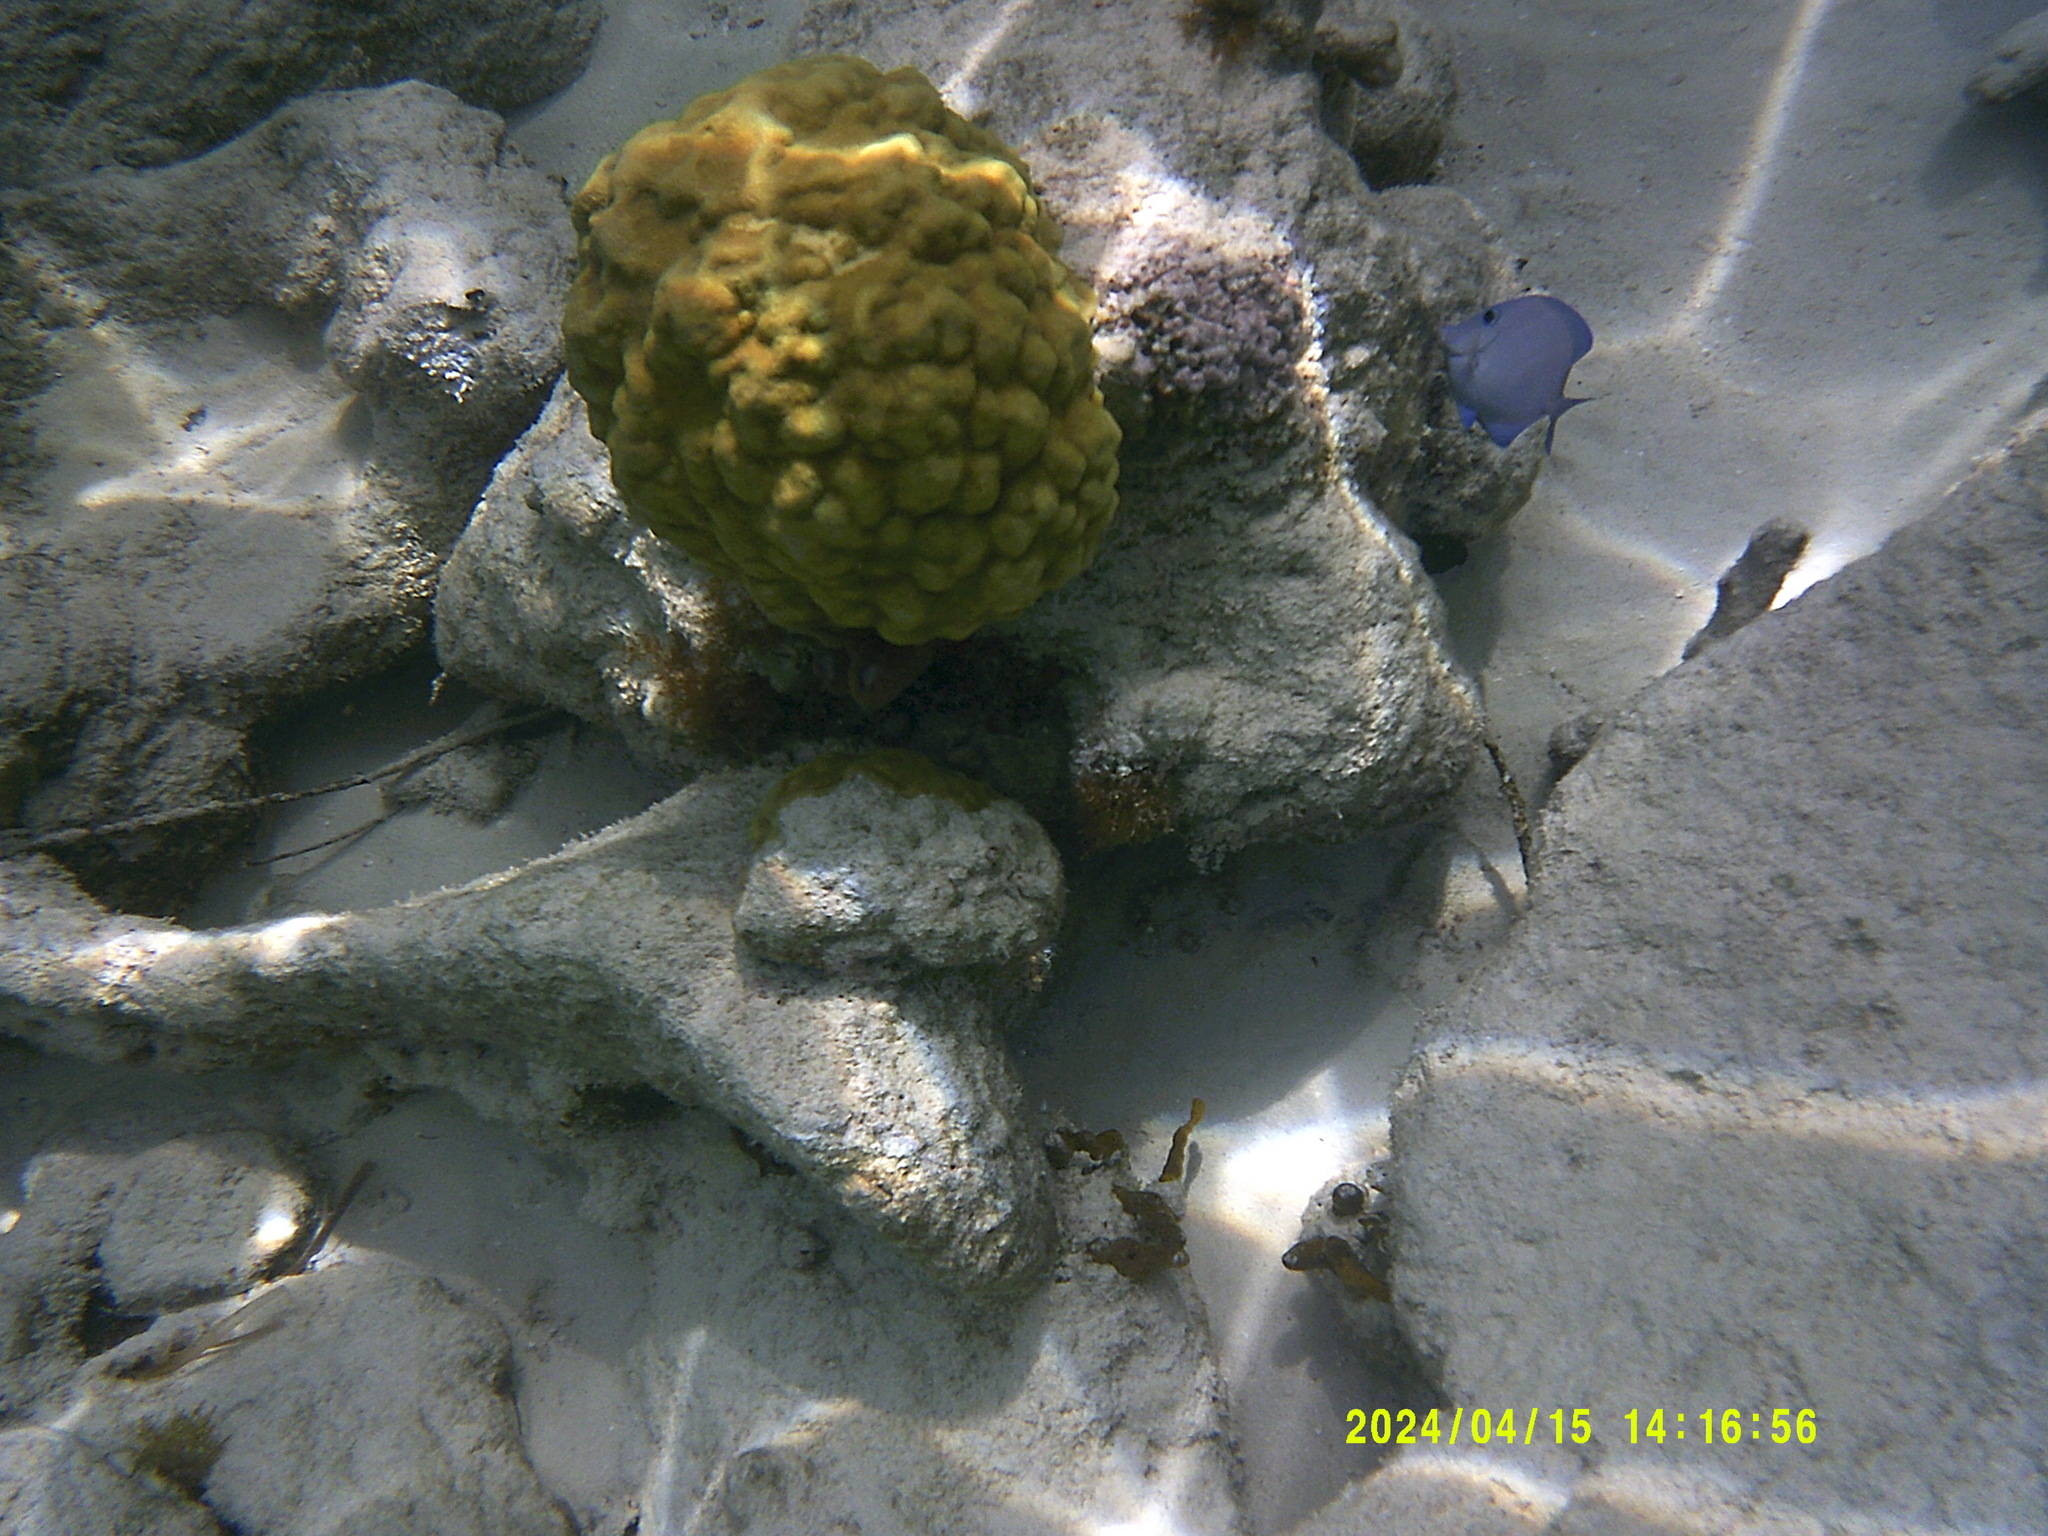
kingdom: Animalia
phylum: Chordata
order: Perciformes
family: Acanthuridae
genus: Acanthurus
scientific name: Acanthurus coeruleus
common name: Blue tang
